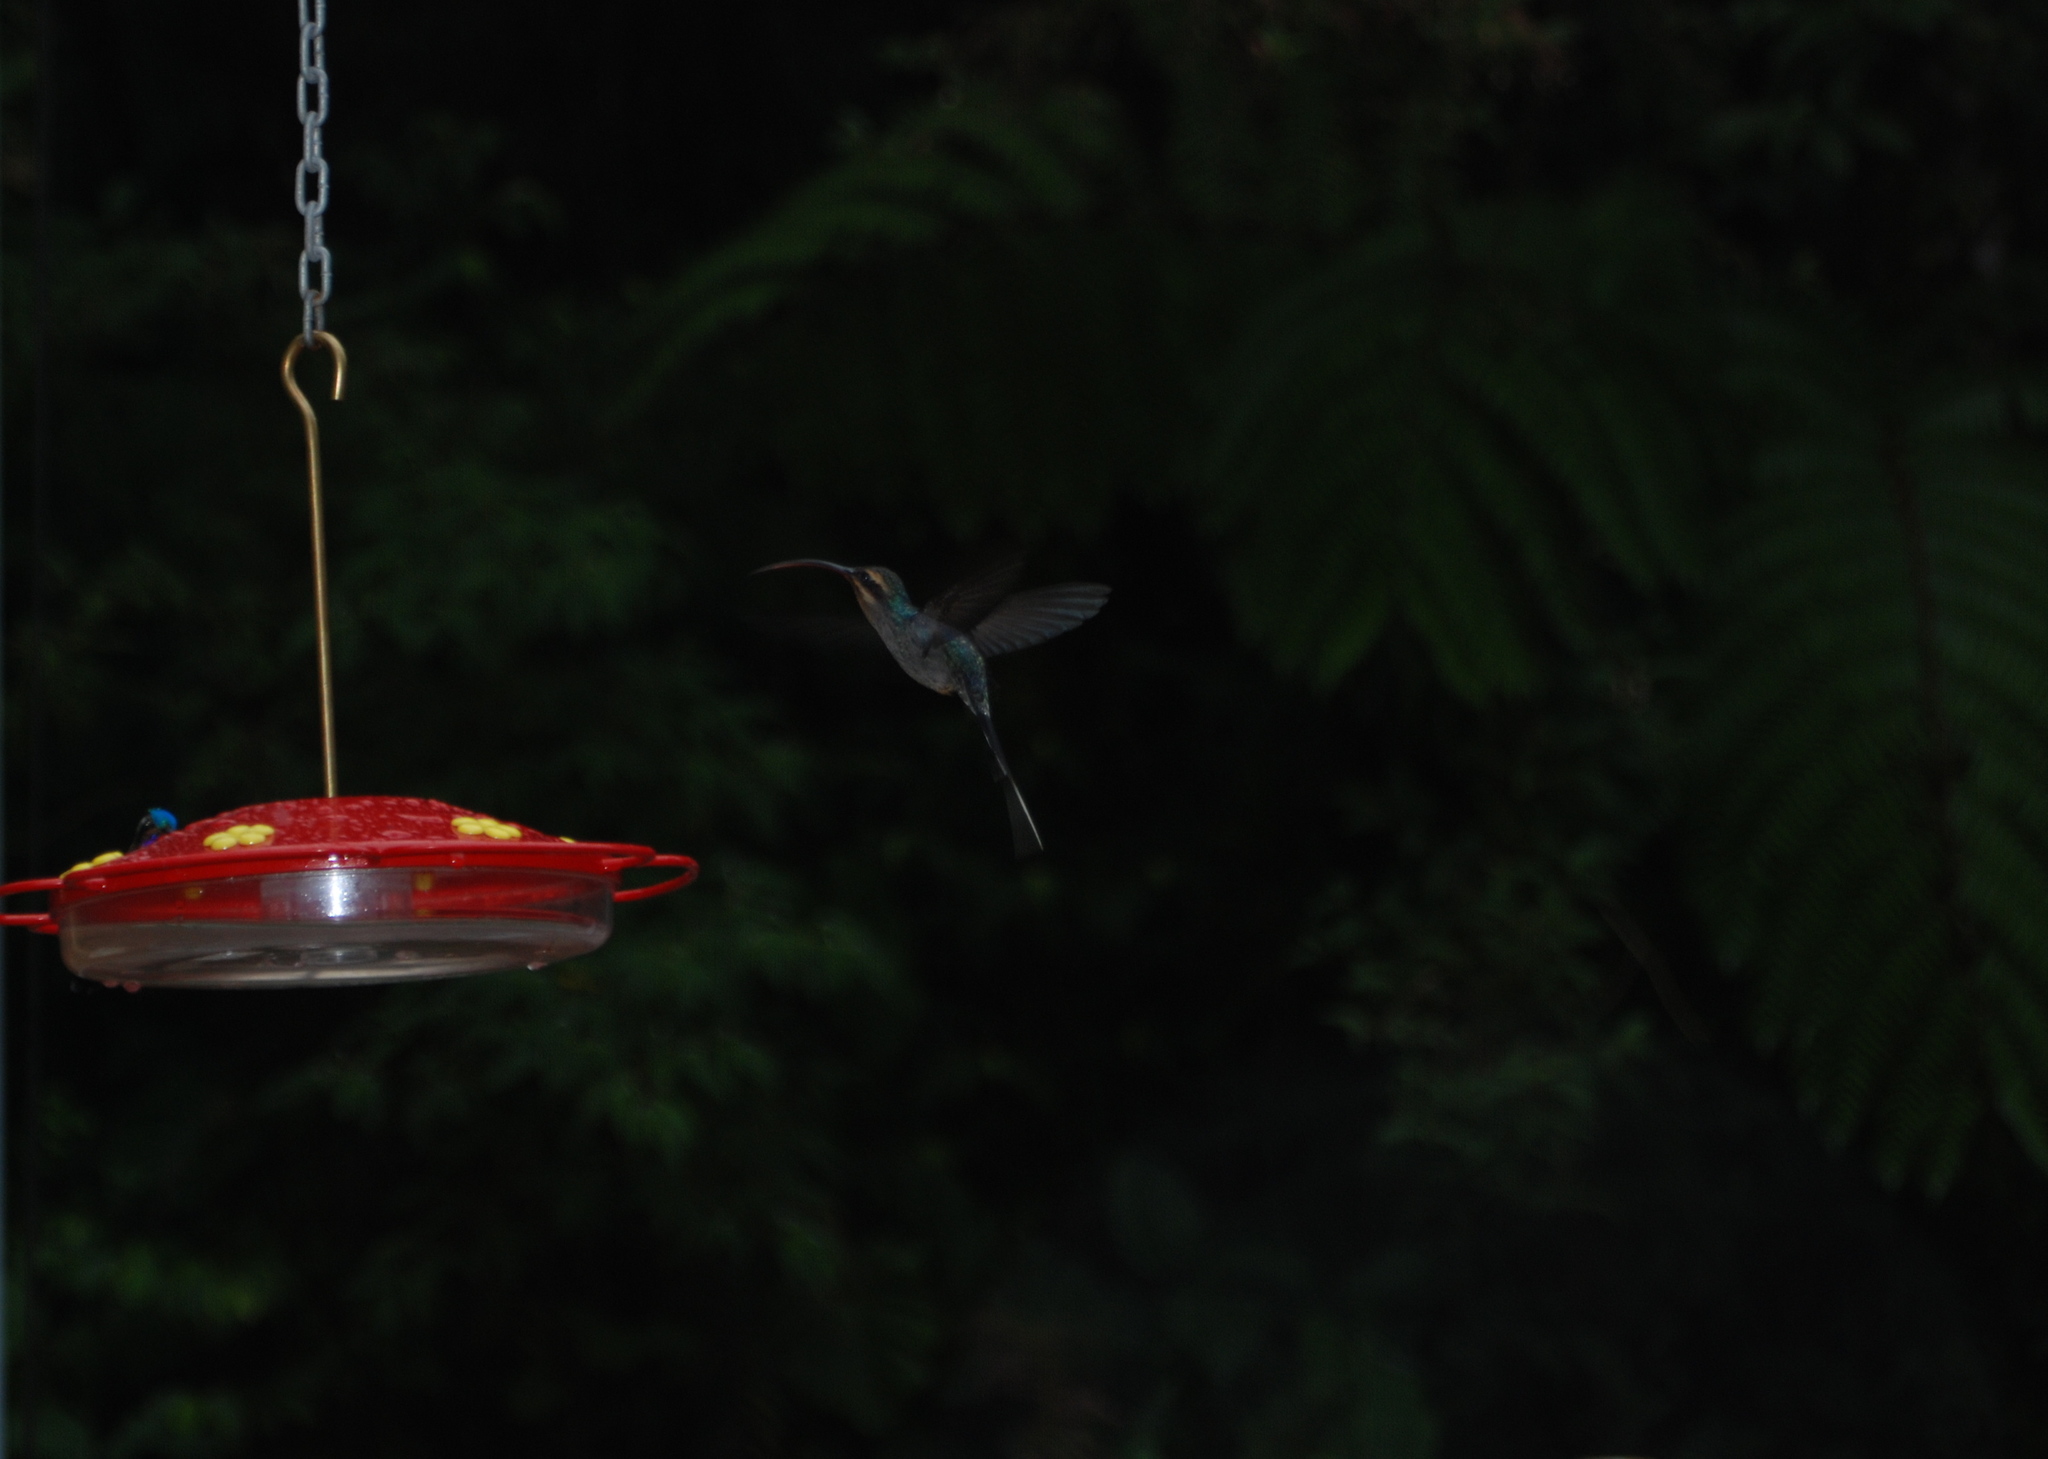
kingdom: Animalia
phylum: Chordata
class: Aves
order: Apodiformes
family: Trochilidae
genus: Phaethornis
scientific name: Phaethornis guy
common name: Green hermit
